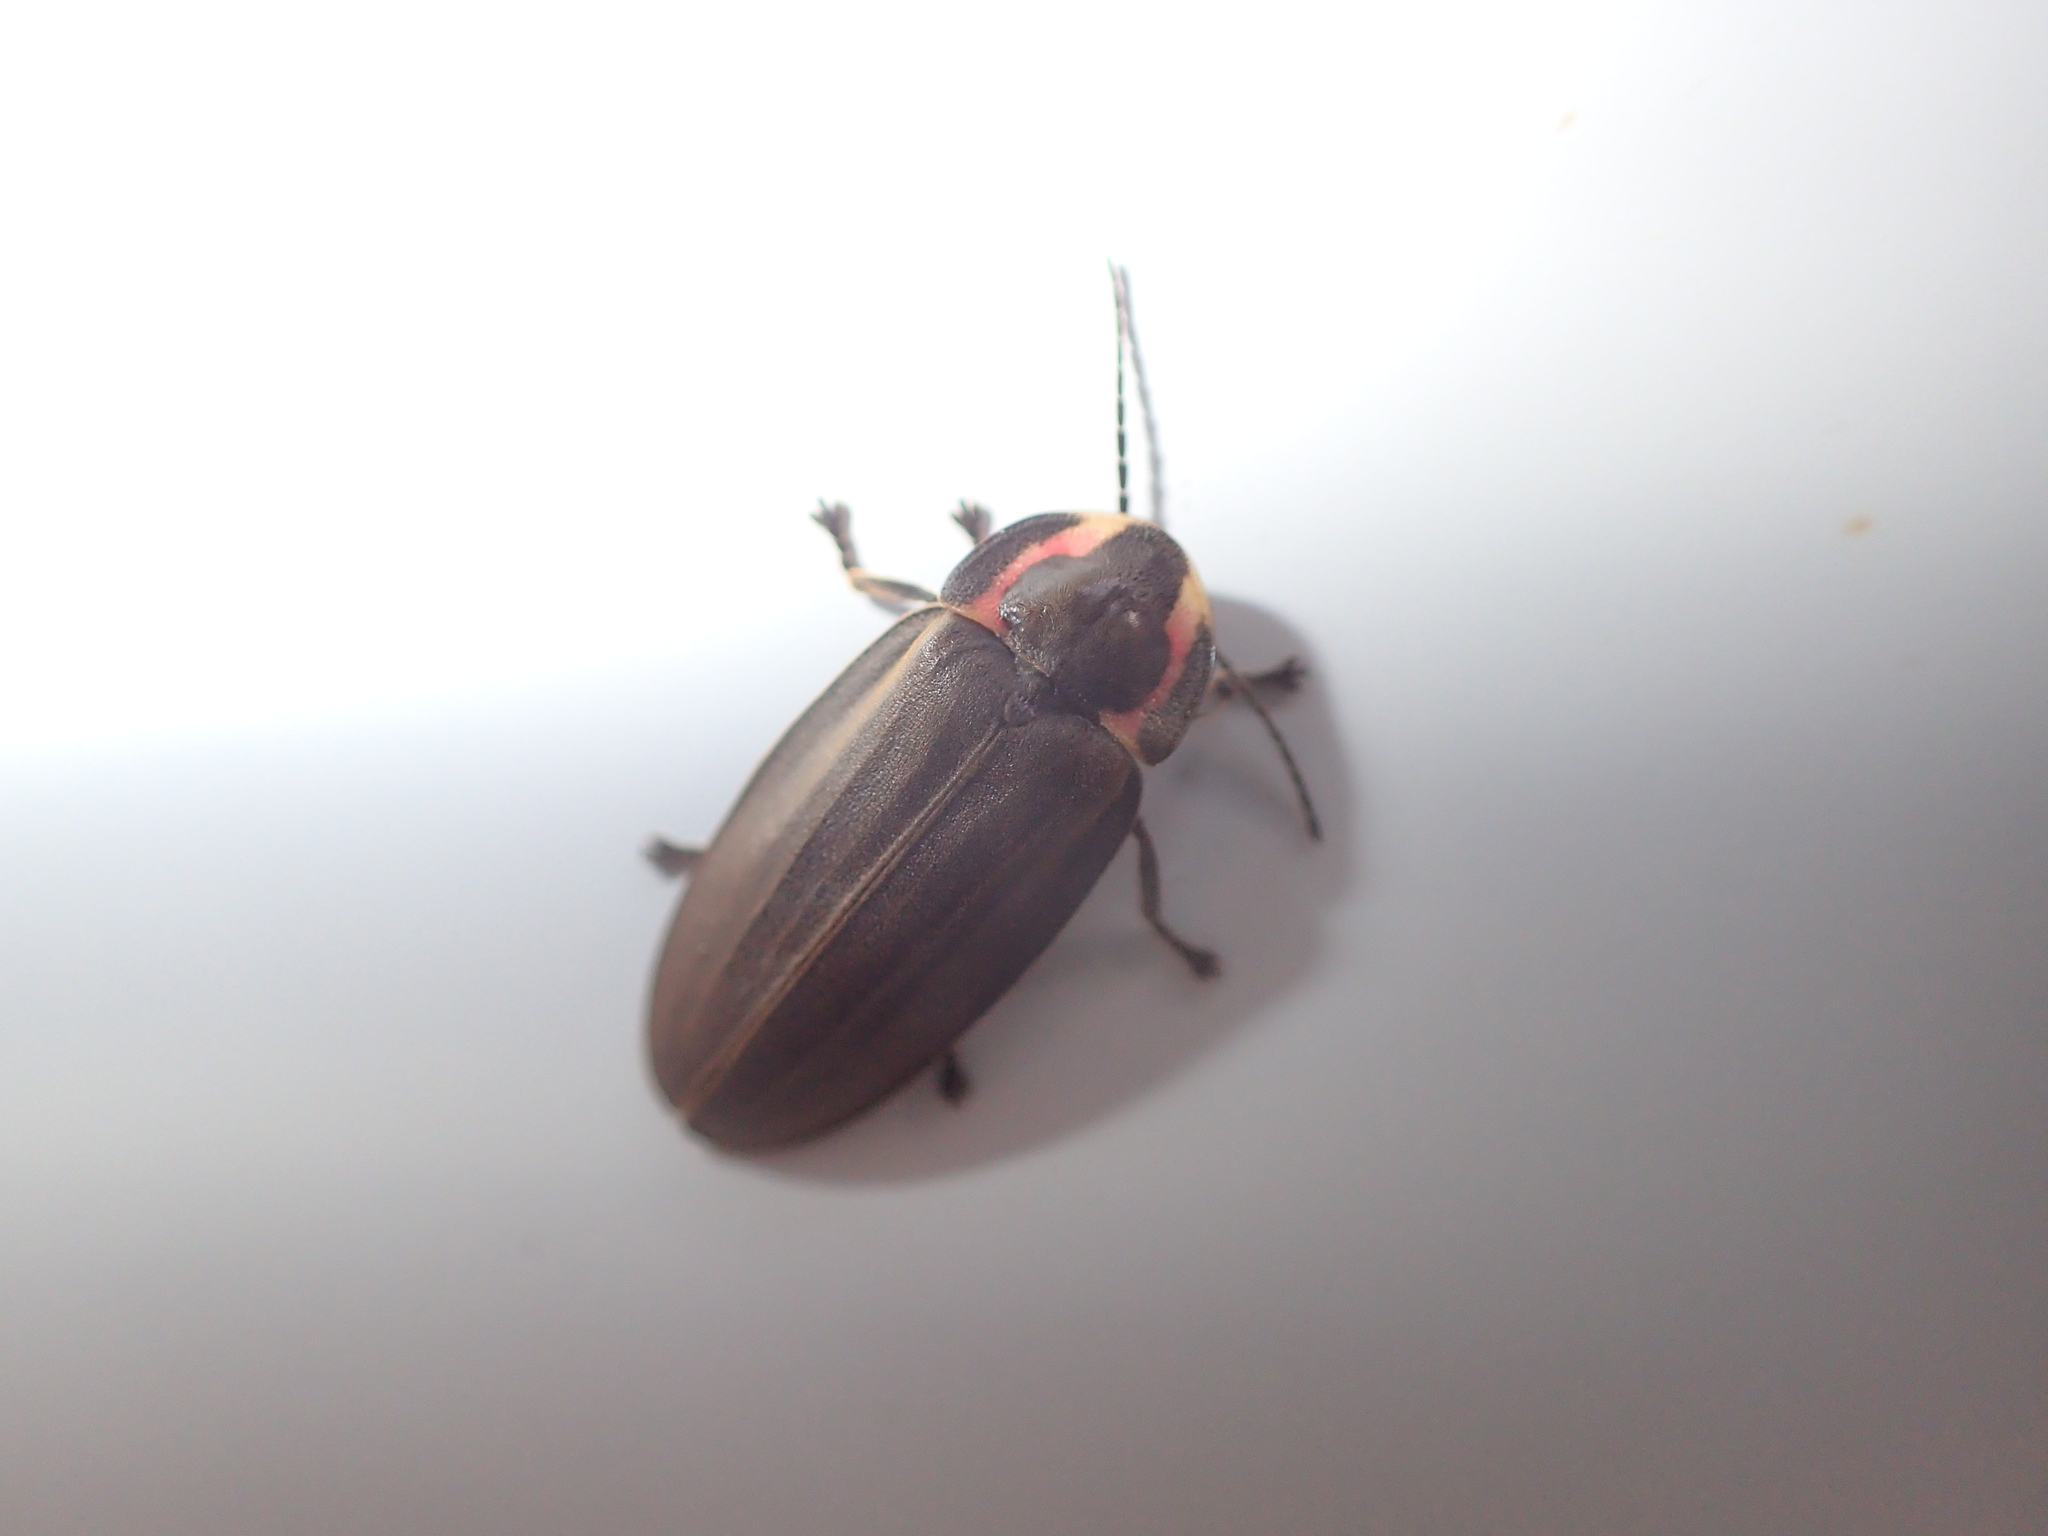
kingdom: Animalia
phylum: Arthropoda
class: Insecta
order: Coleoptera
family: Lampyridae
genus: Photinus
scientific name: Photinus corrusca
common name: Winter firefly
